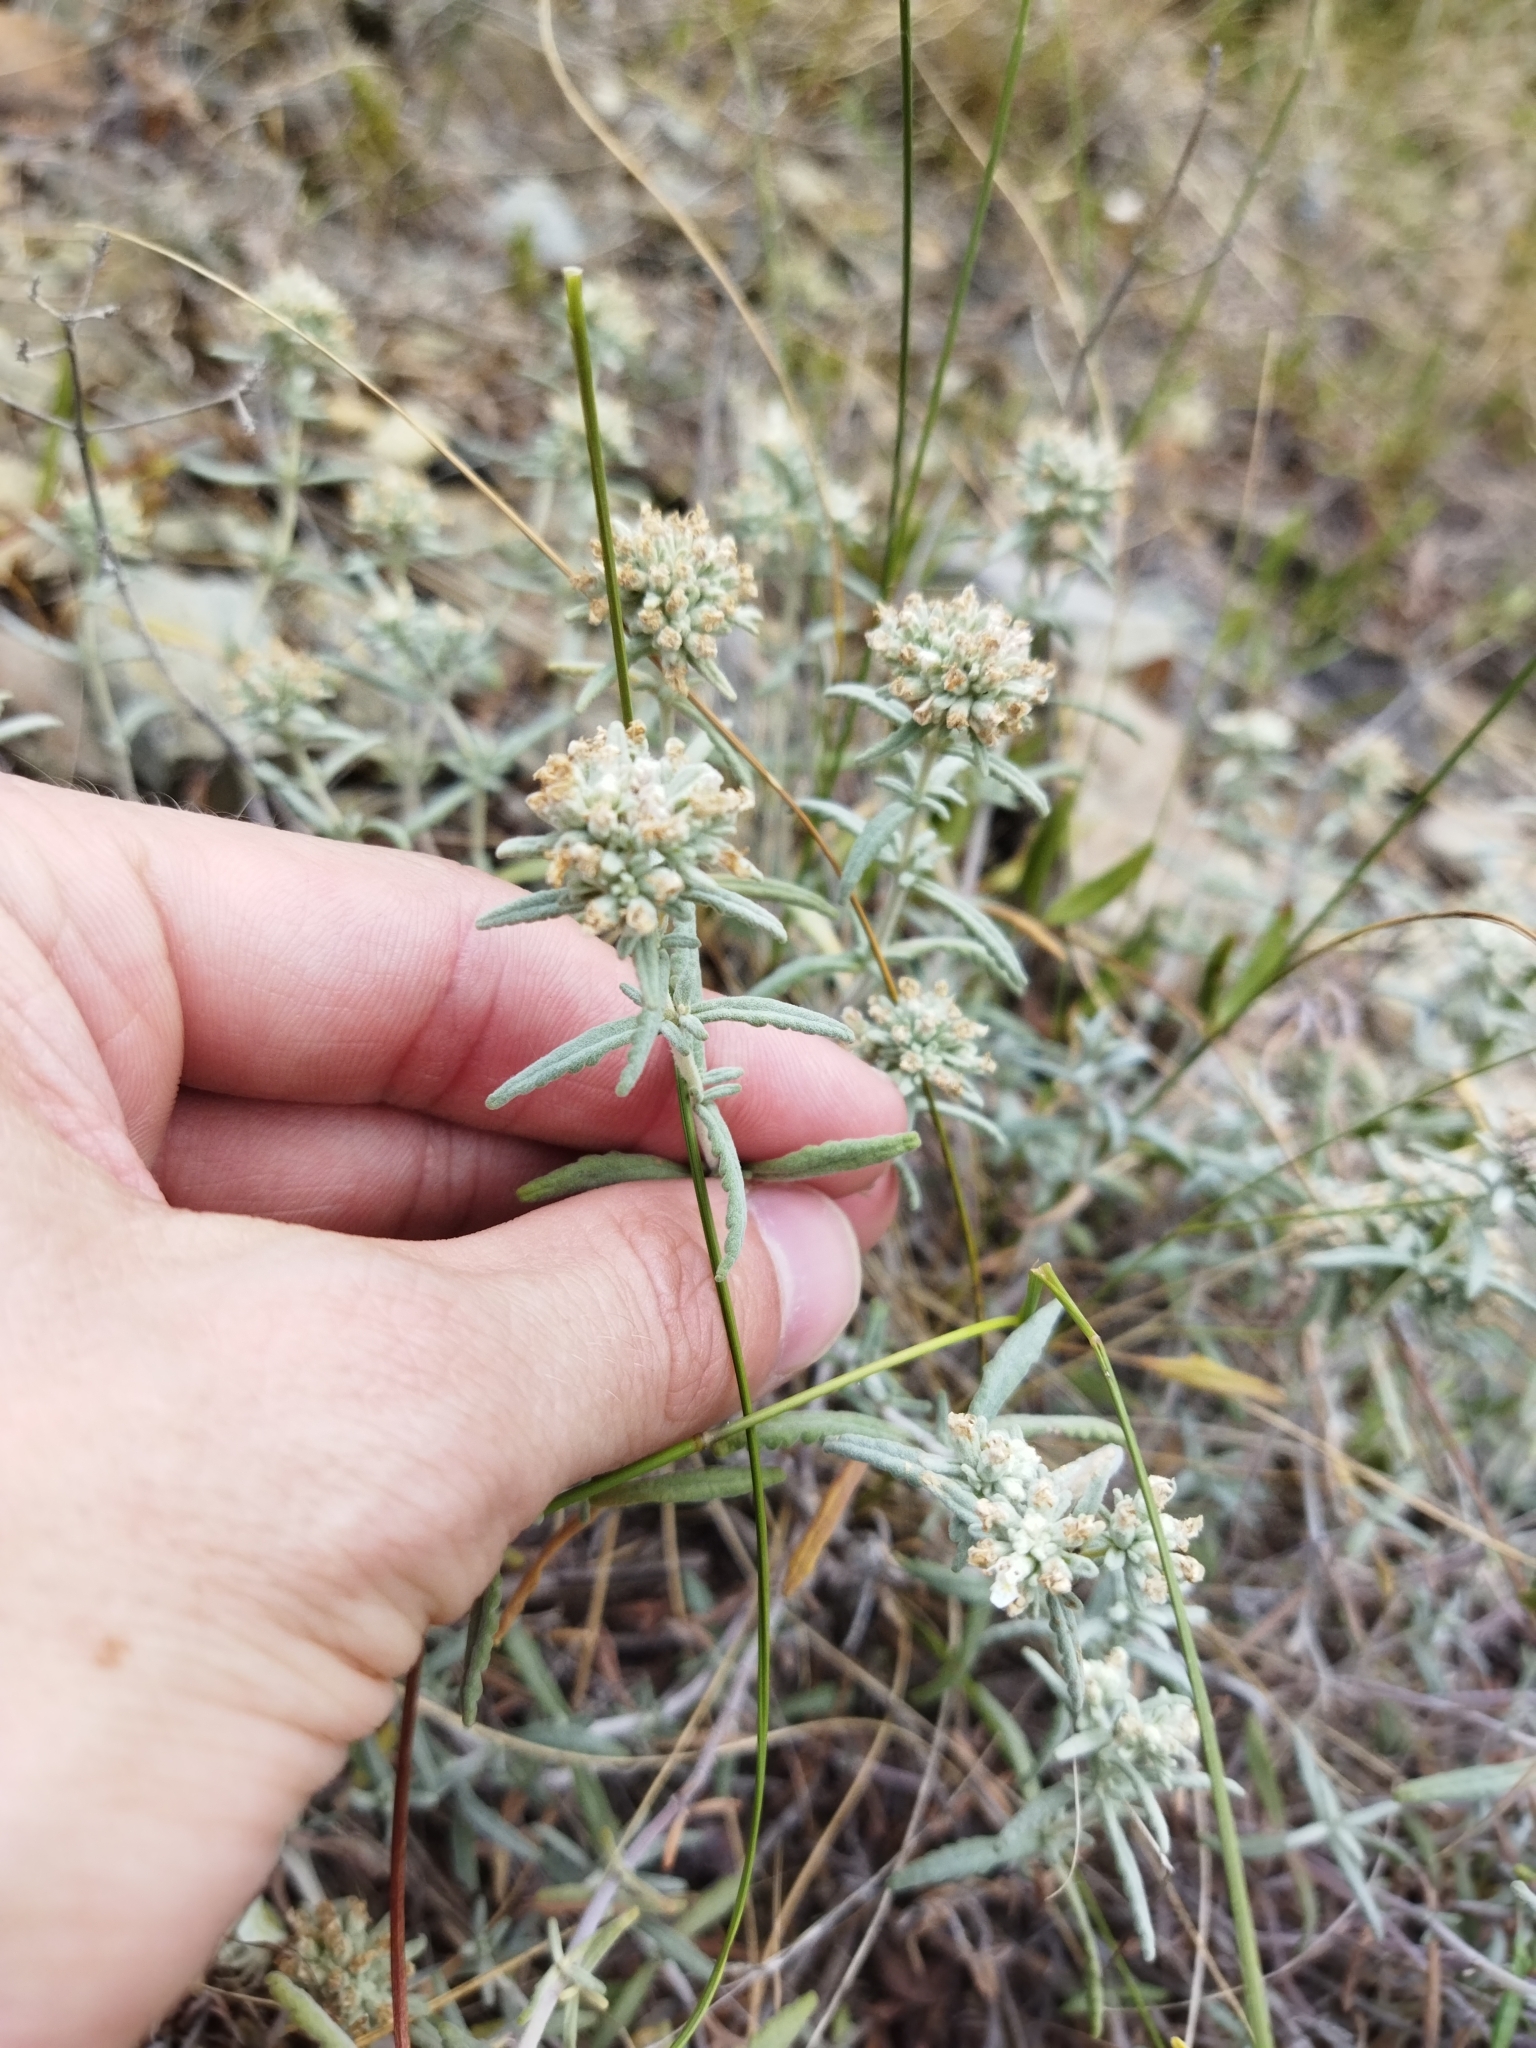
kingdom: Plantae
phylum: Tracheophyta
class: Magnoliopsida
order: Lamiales
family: Lamiaceae
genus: Teucrium
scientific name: Teucrium polium
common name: Poley
